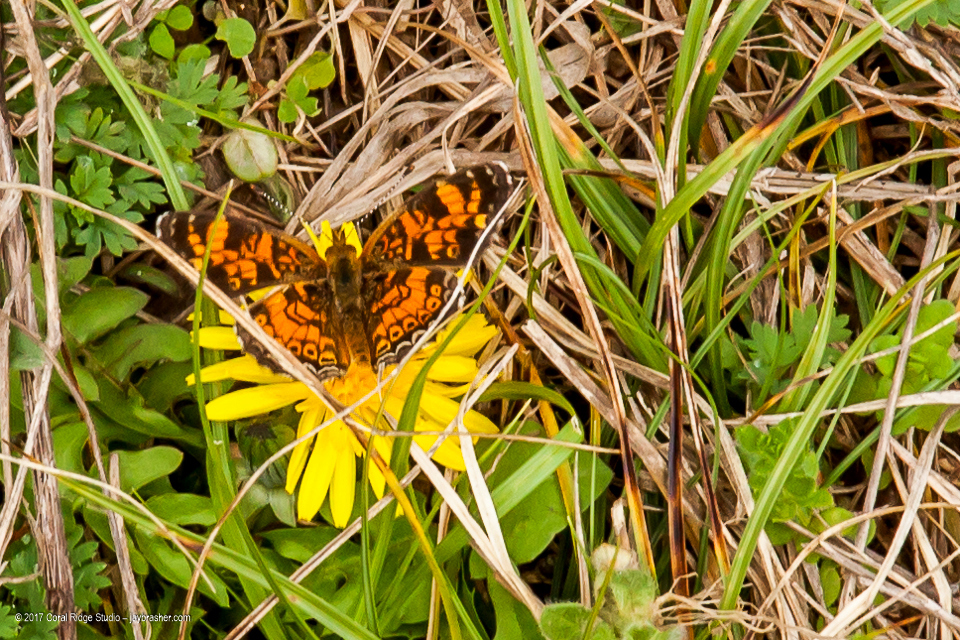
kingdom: Animalia
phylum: Arthropoda
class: Insecta
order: Lepidoptera
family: Nymphalidae
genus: Phyciodes
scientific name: Phyciodes tharos
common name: Pearl crescent
